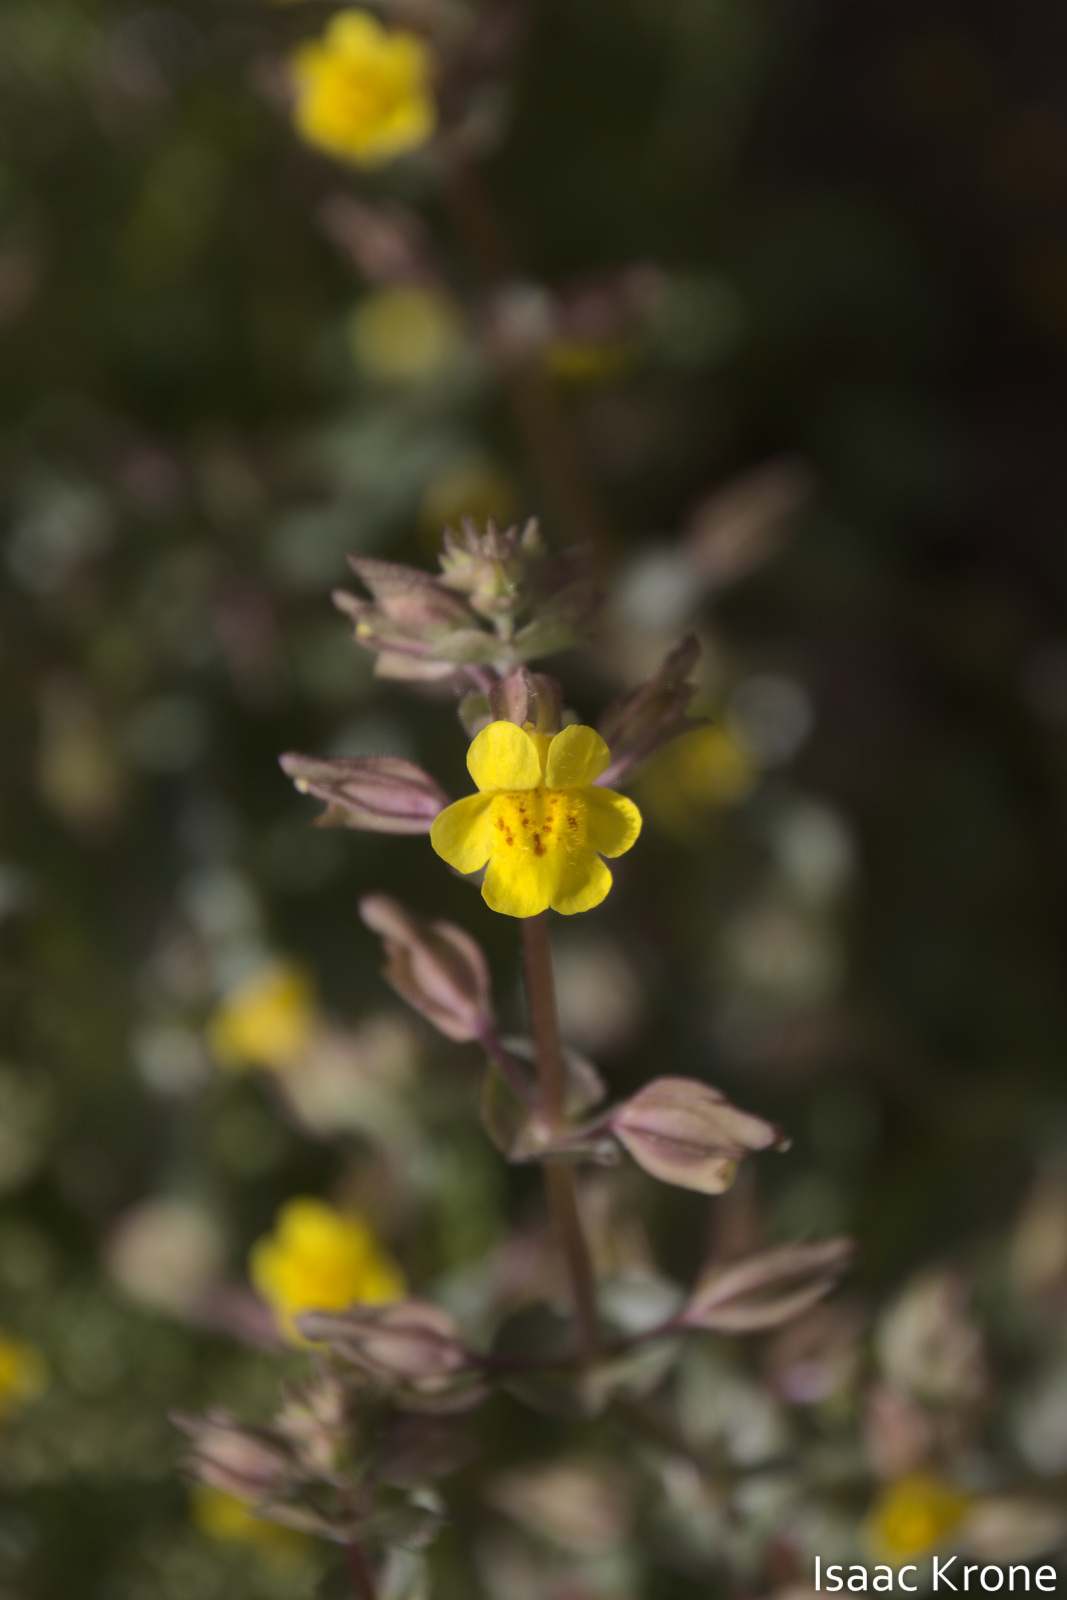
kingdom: Plantae
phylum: Tracheophyta
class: Magnoliopsida
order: Lamiales
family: Phrymaceae
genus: Erythranthe
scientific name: Erythranthe guttata
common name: Monkeyflower
